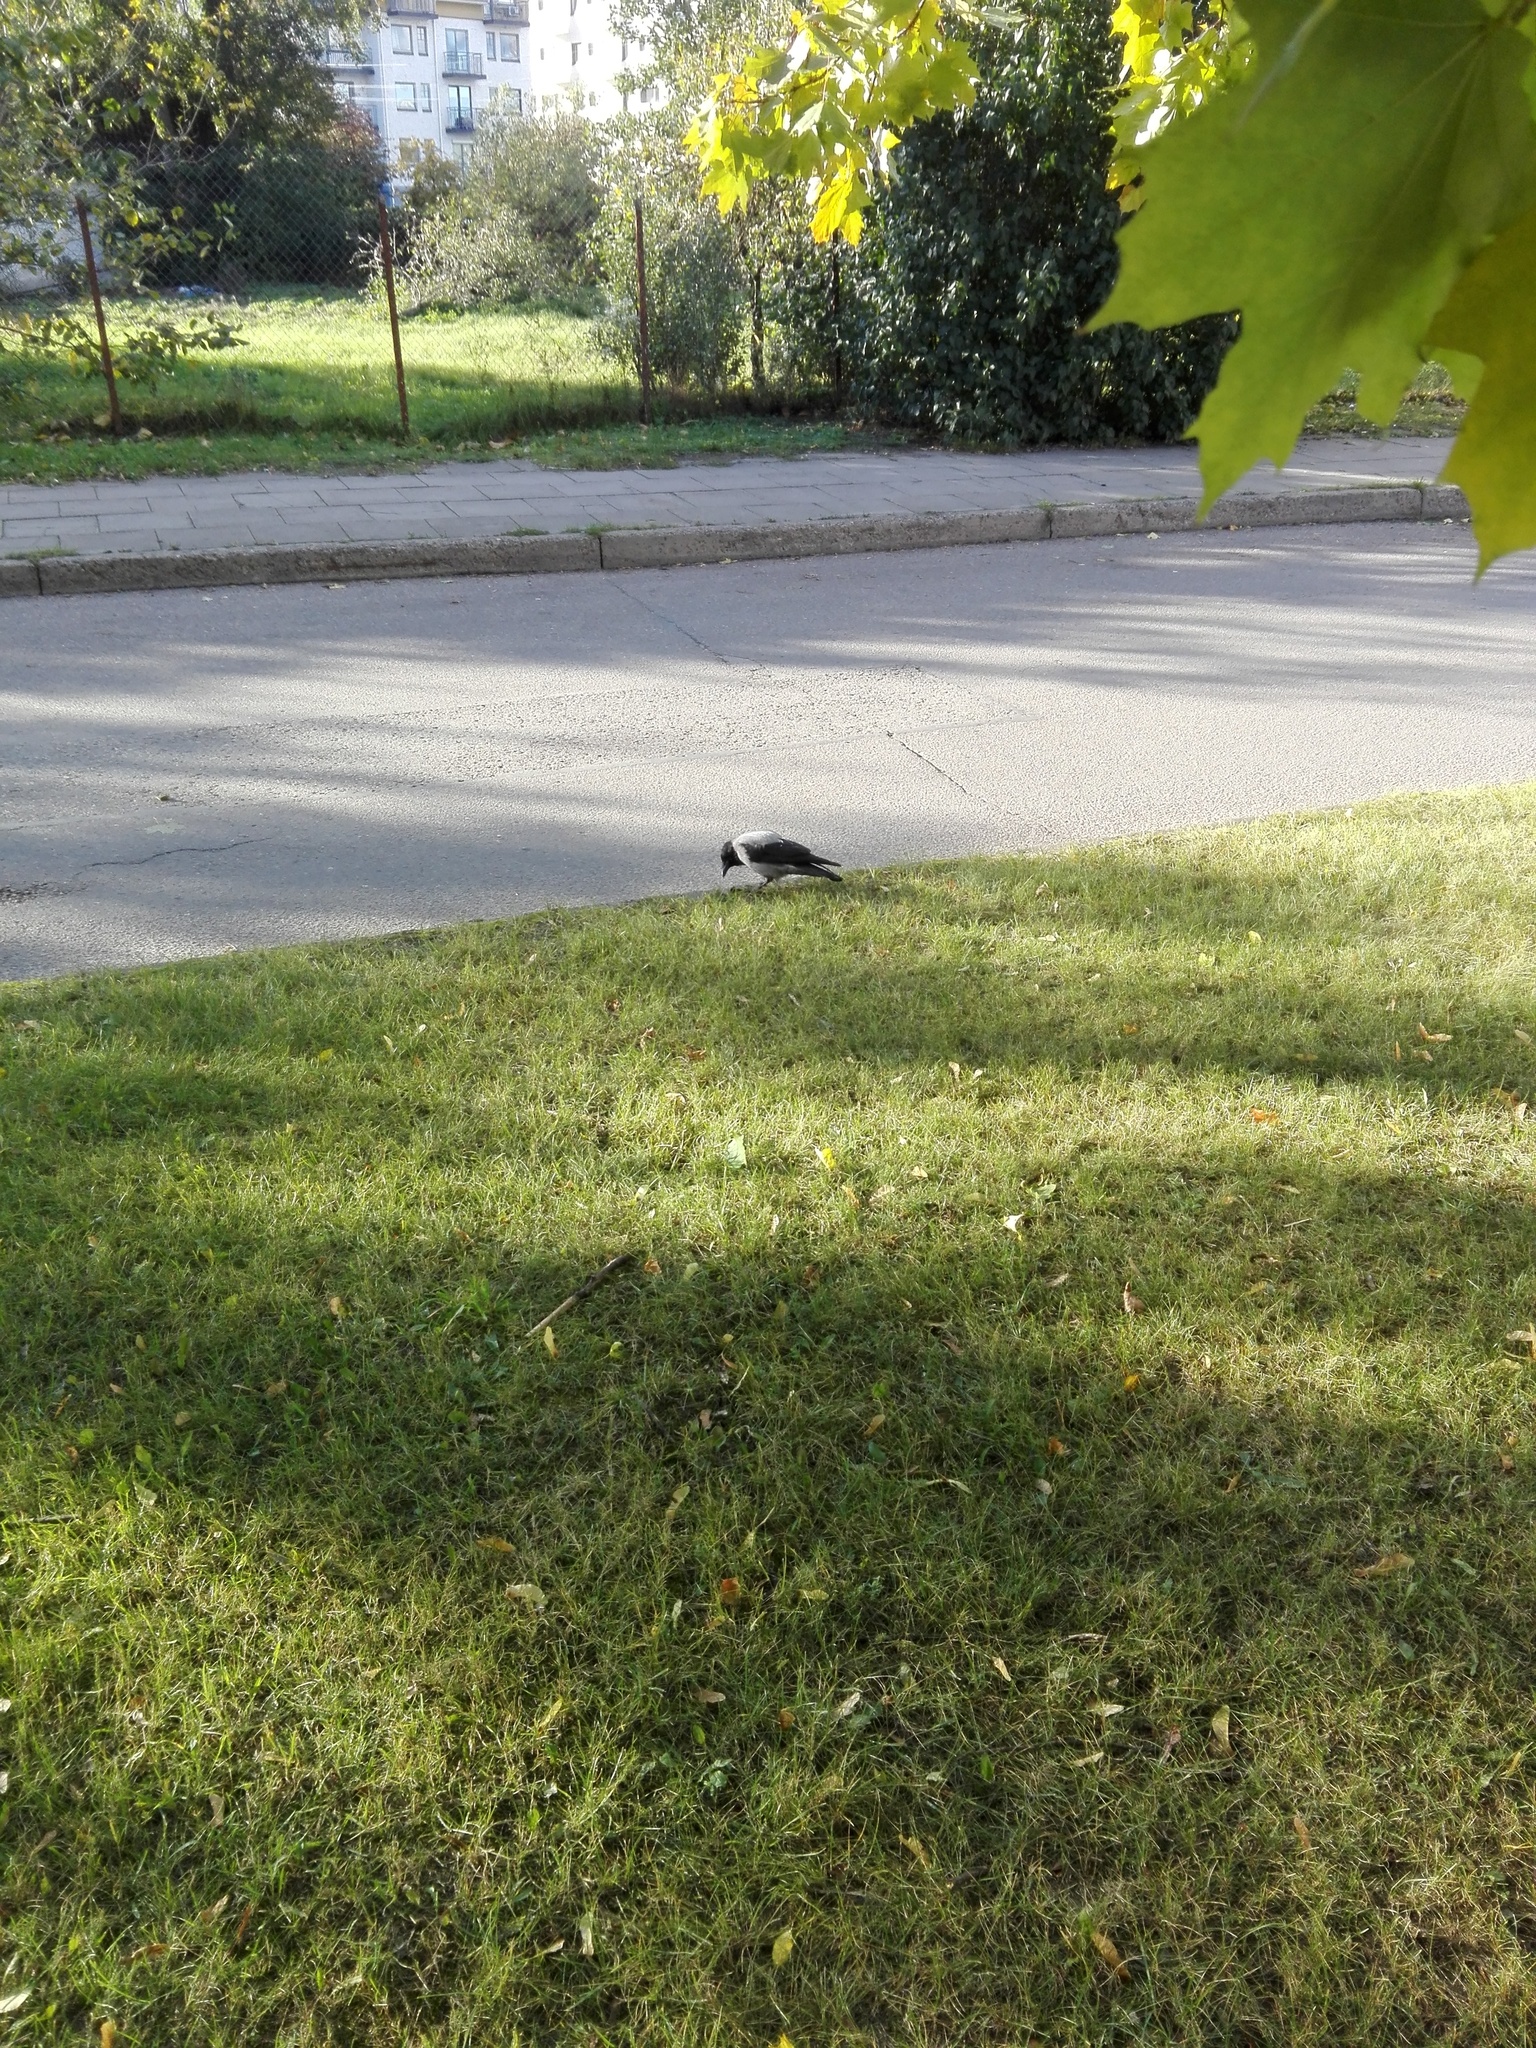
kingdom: Animalia
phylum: Chordata
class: Aves
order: Passeriformes
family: Corvidae
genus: Corvus
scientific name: Corvus cornix
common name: Hooded crow
